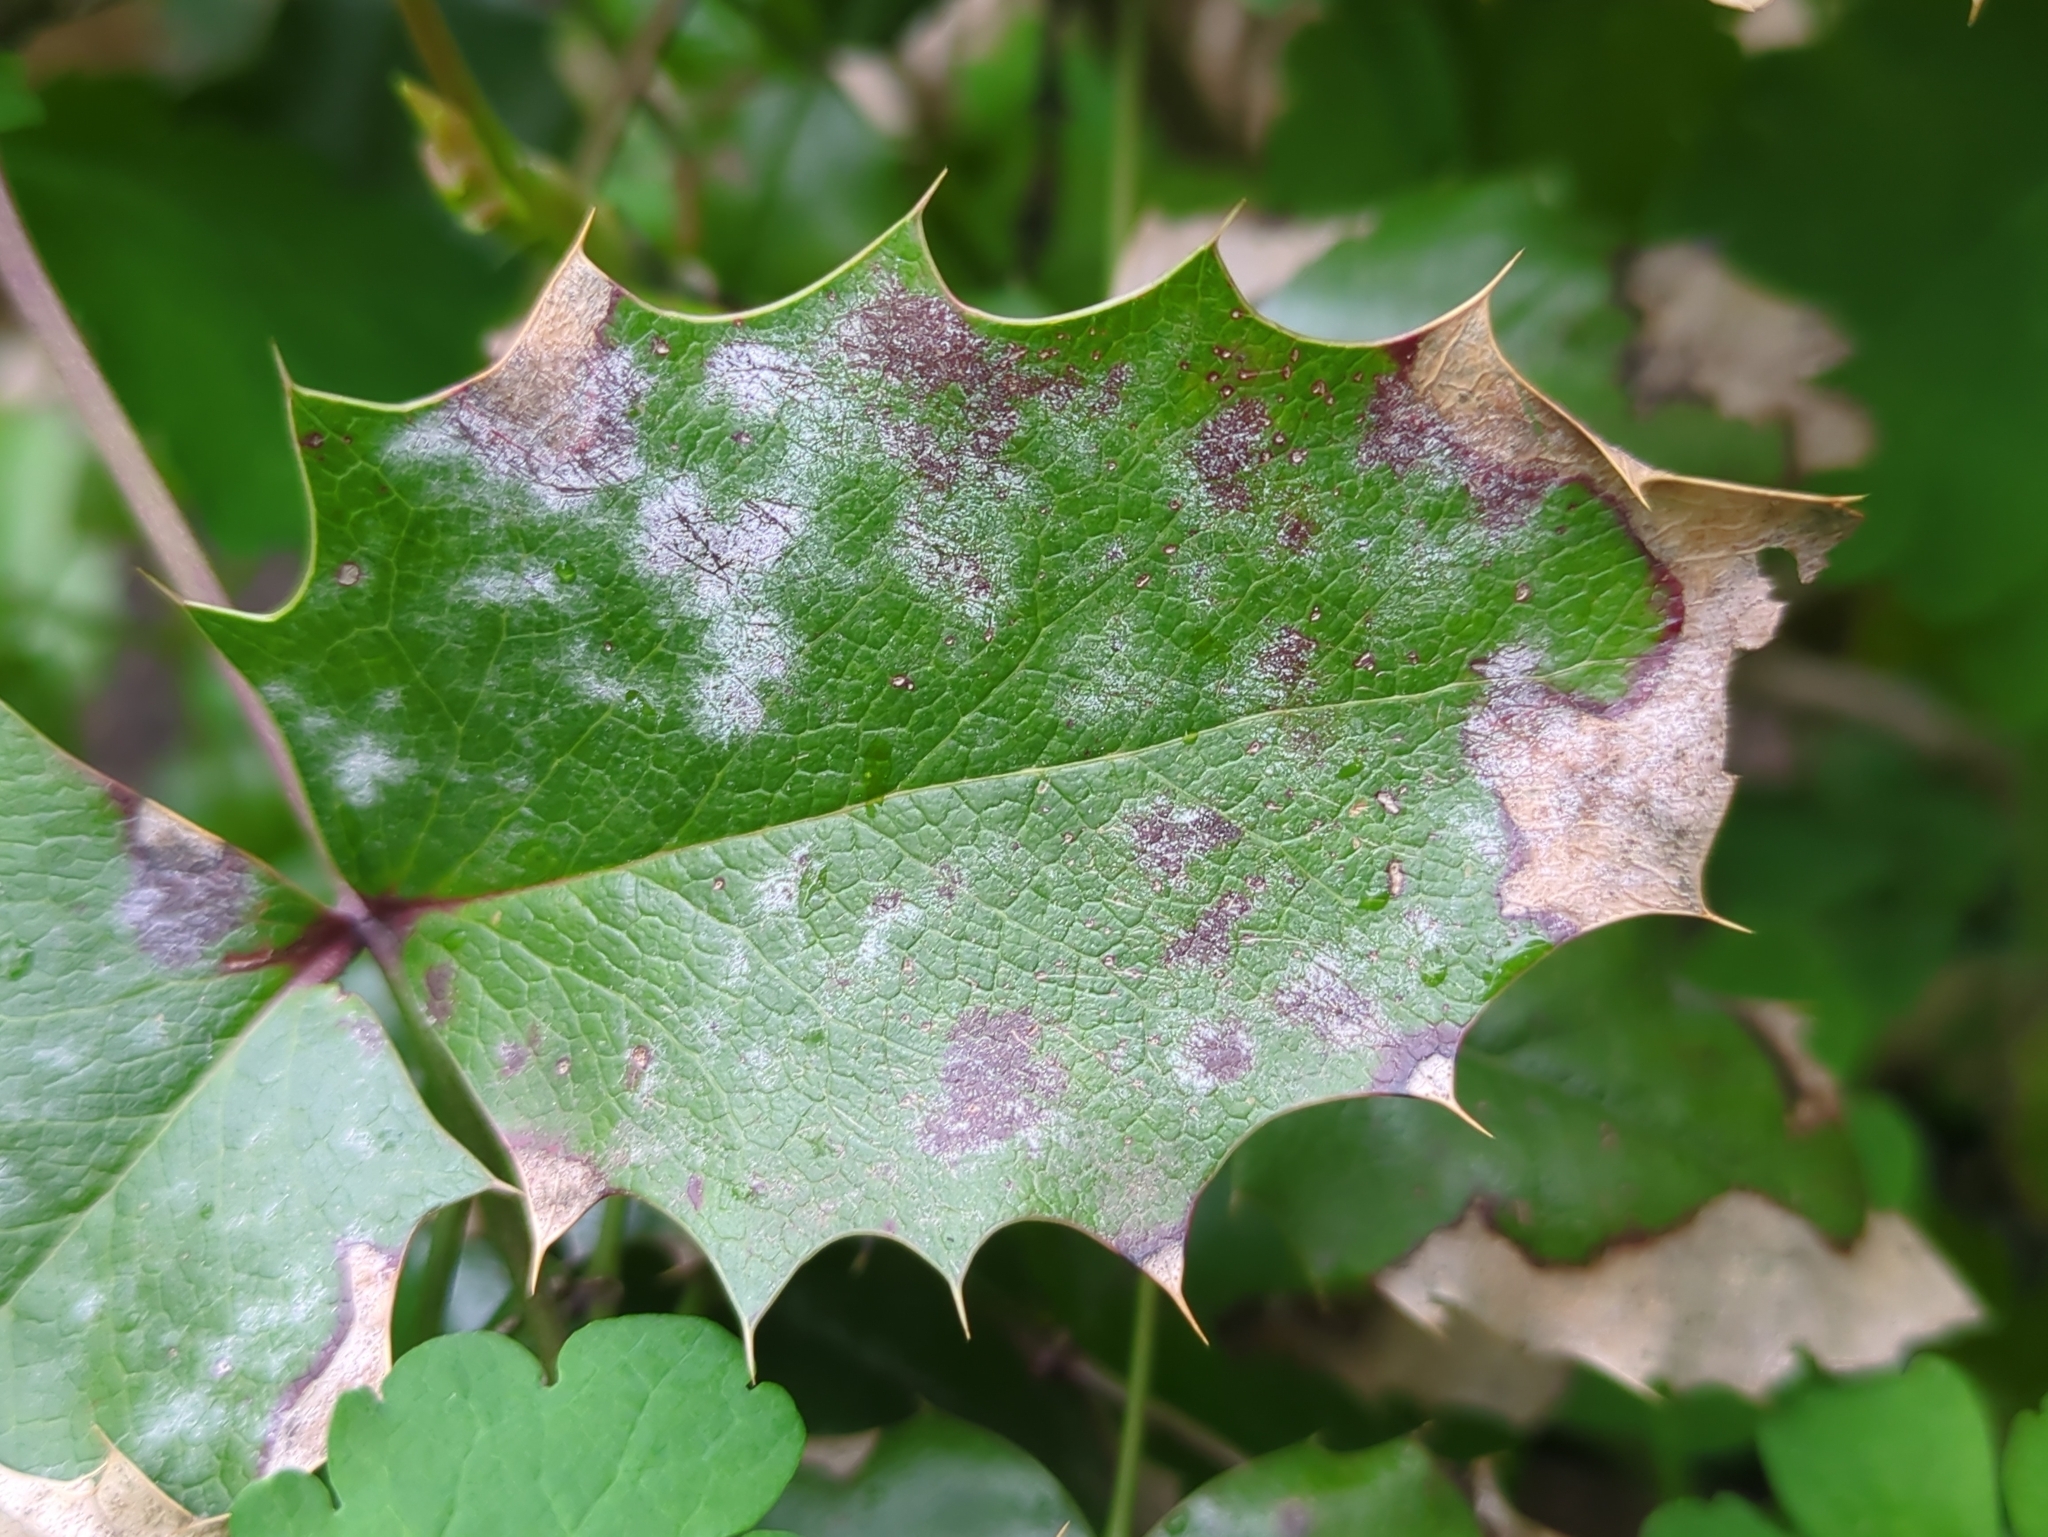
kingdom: Fungi
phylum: Ascomycota
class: Leotiomycetes
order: Helotiales
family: Erysiphaceae
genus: Erysiphe
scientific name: Erysiphe berberidis
